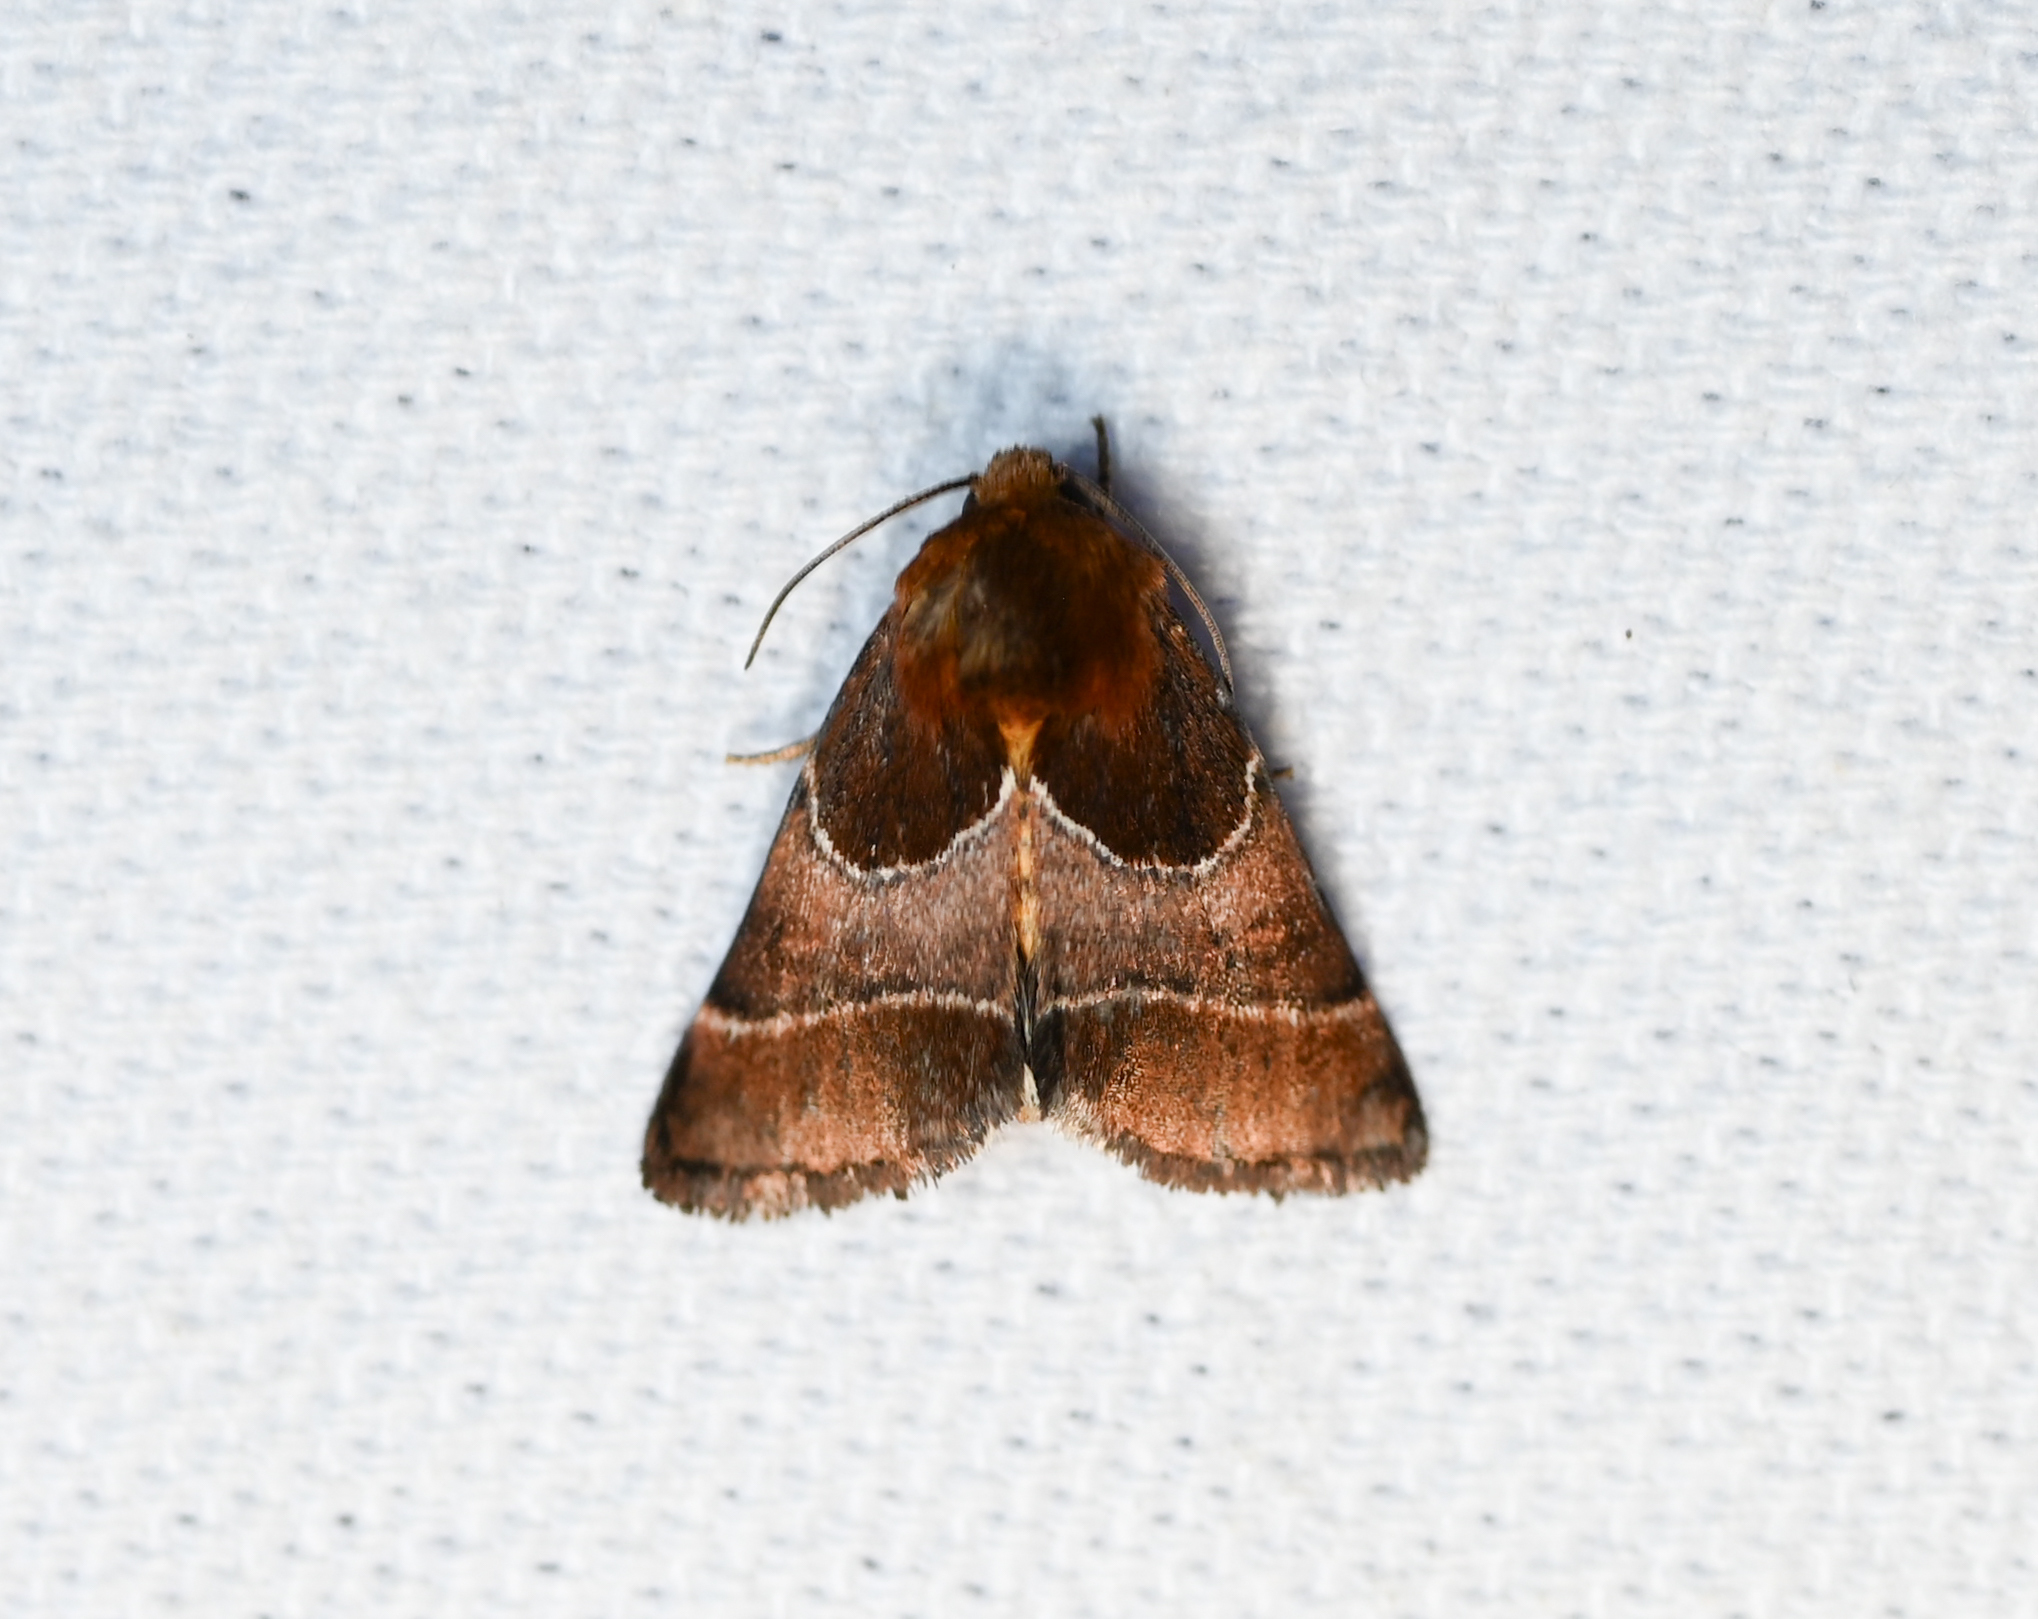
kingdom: Animalia
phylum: Arthropoda
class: Insecta
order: Lepidoptera
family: Noctuidae
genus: Schinia
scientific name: Schinia arcigera
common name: Arcigera flower moth
